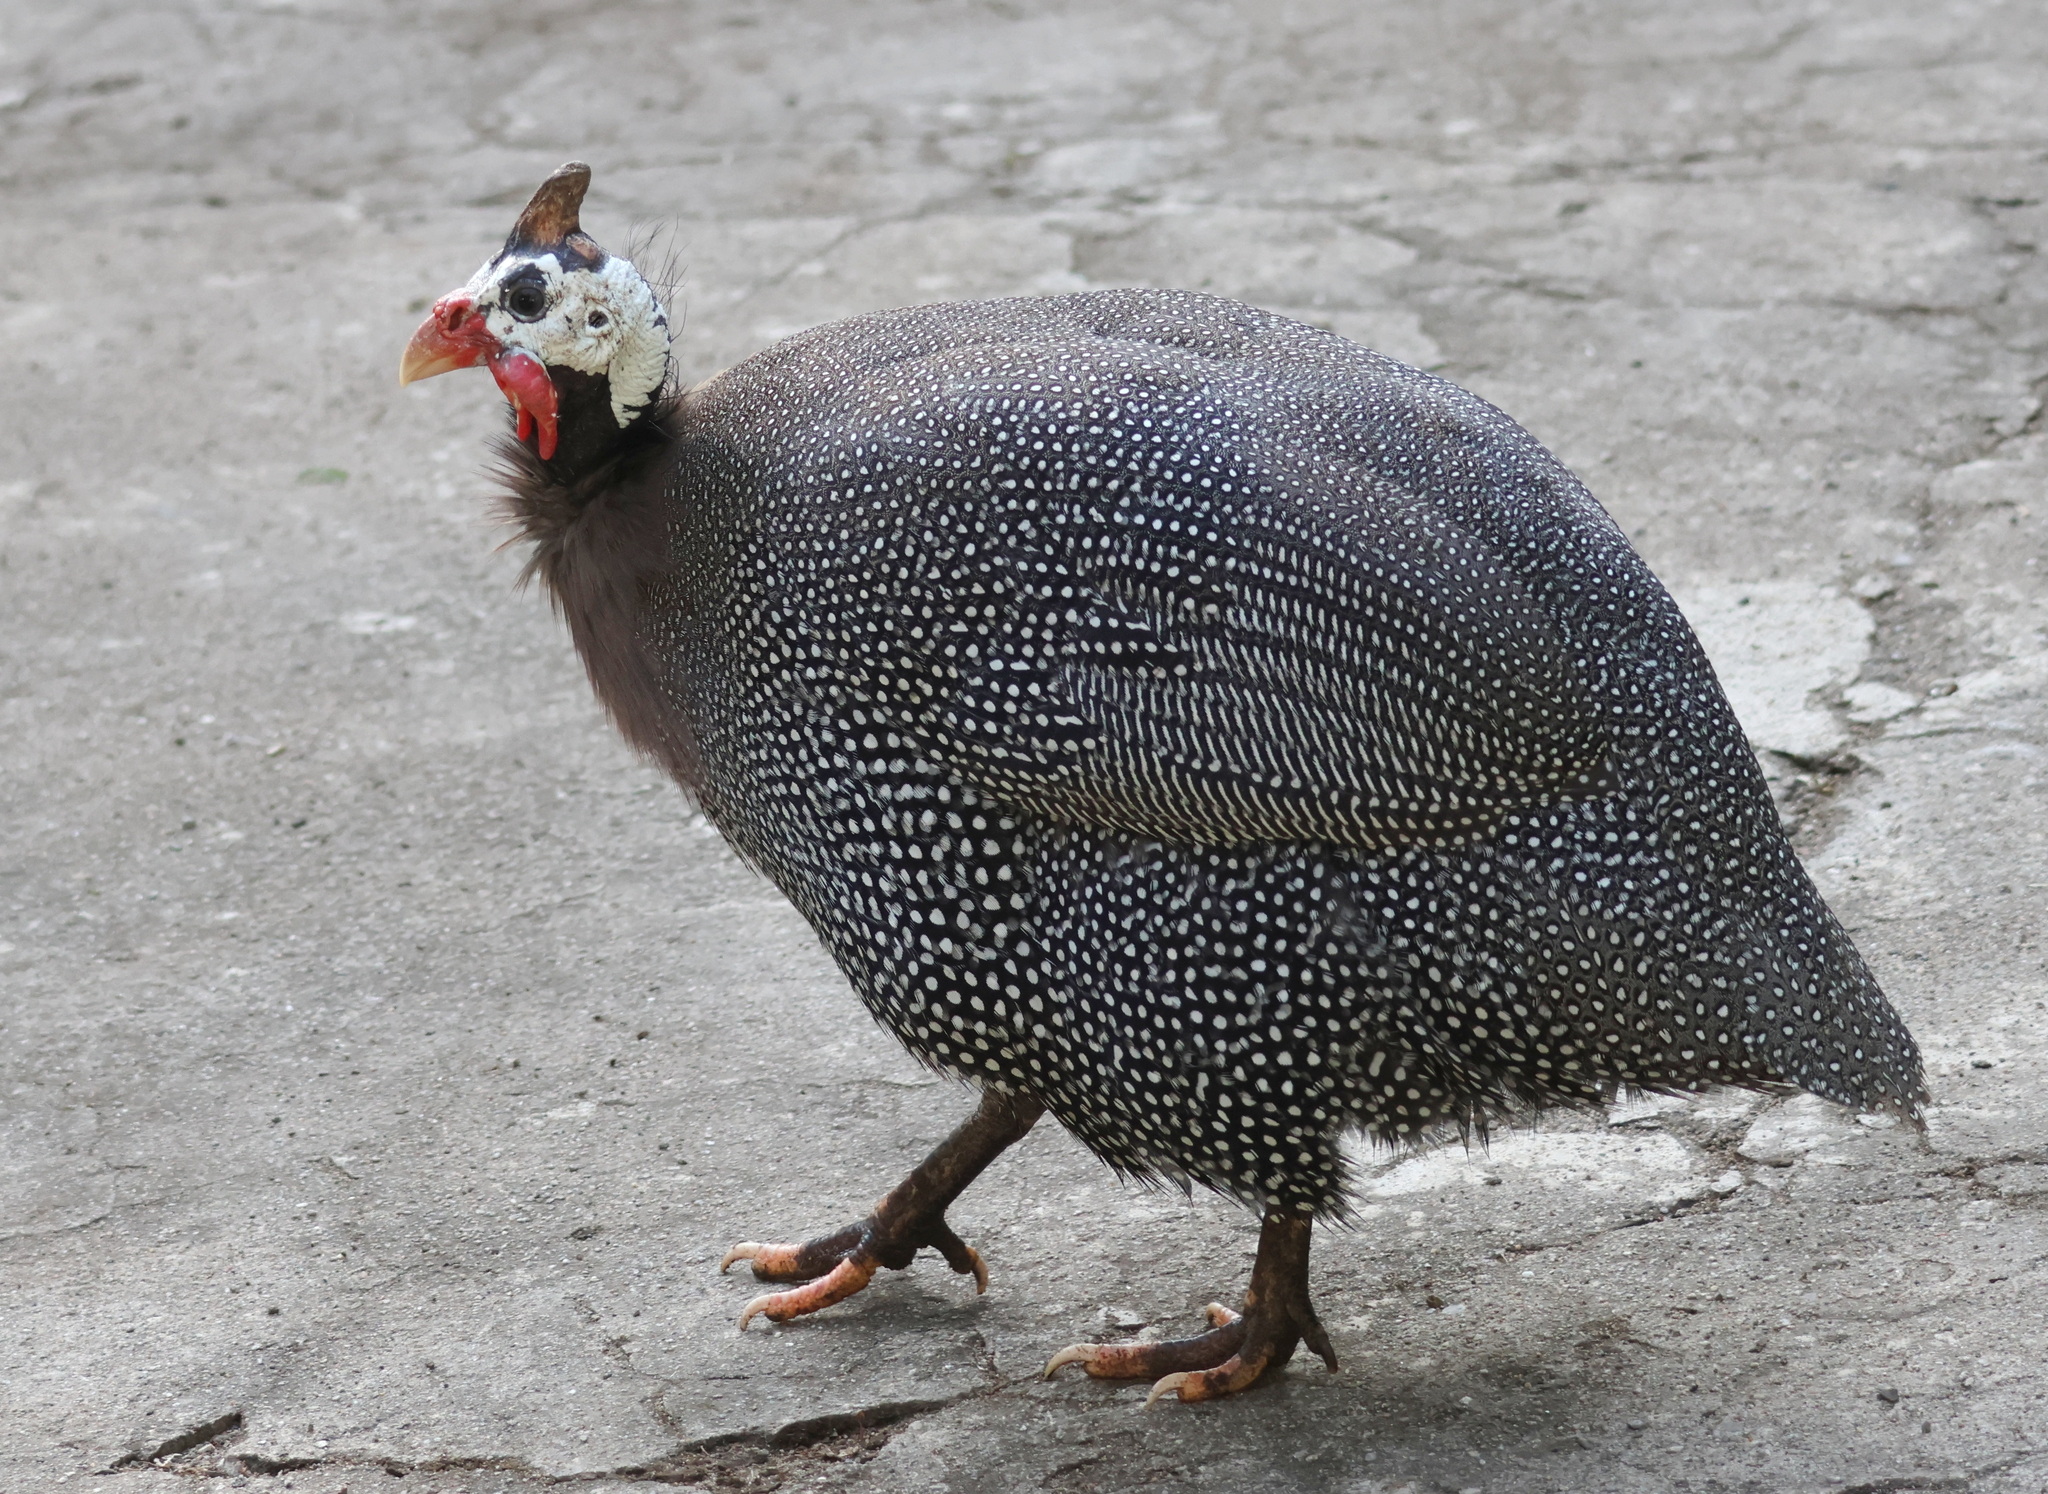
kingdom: Animalia
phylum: Chordata
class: Aves
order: Galliformes
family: Numididae
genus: Numida
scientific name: Numida meleagris
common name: Helmeted guineafowl
